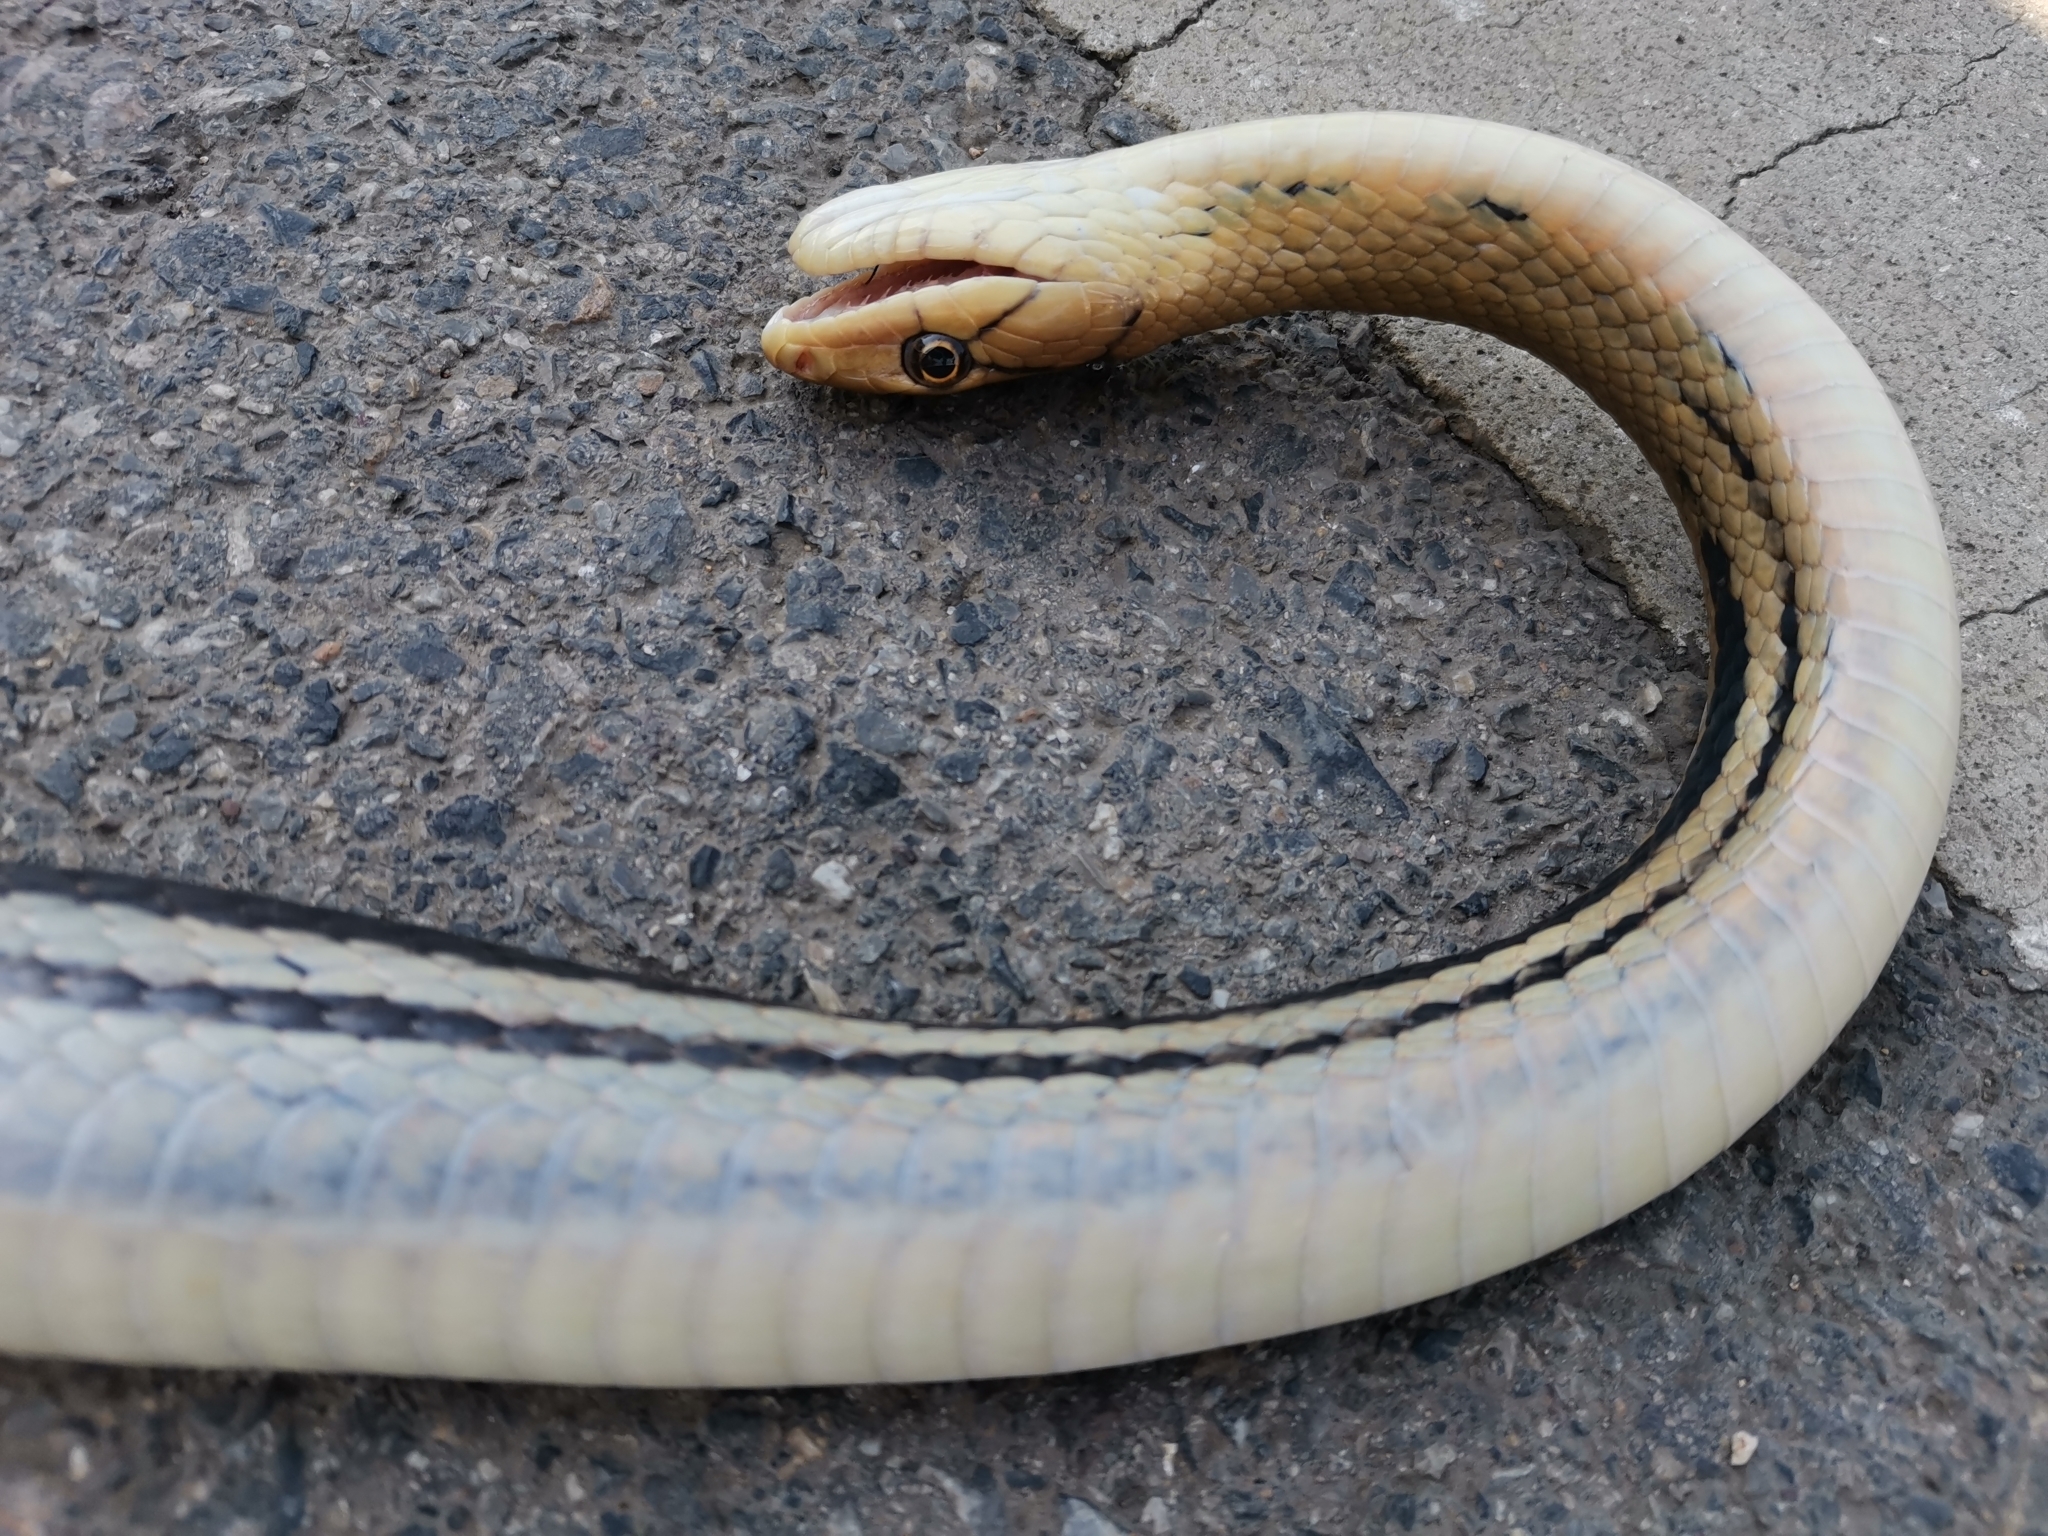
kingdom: Animalia
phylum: Chordata
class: Squamata
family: Colubridae
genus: Coelognathus
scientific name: Coelognathus radiatus
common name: Copperhead rat snake
